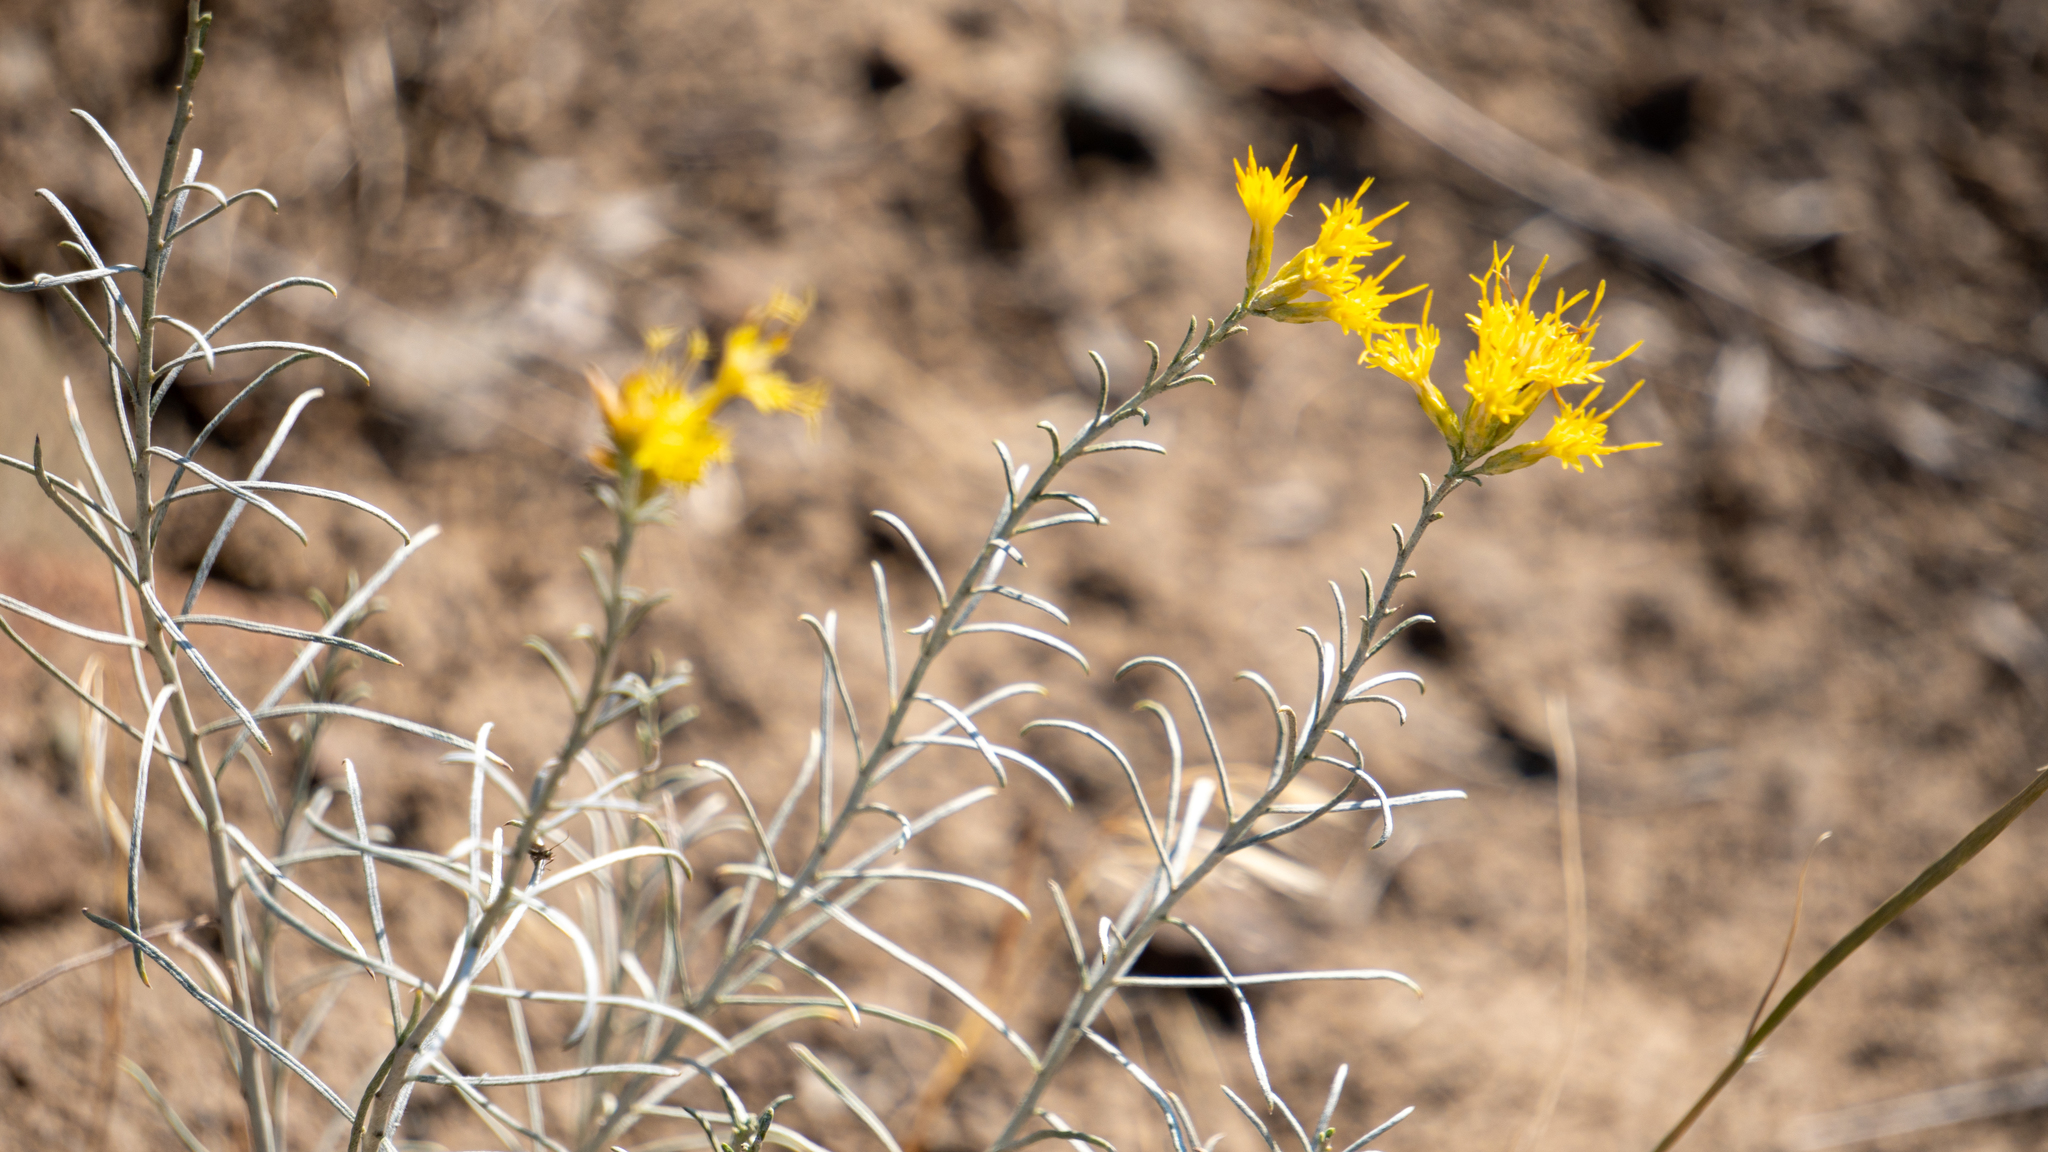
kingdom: Plantae
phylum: Tracheophyta
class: Magnoliopsida
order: Asterales
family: Asteraceae
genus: Ericameria
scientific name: Ericameria nauseosa
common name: Rubber rabbitbrush
